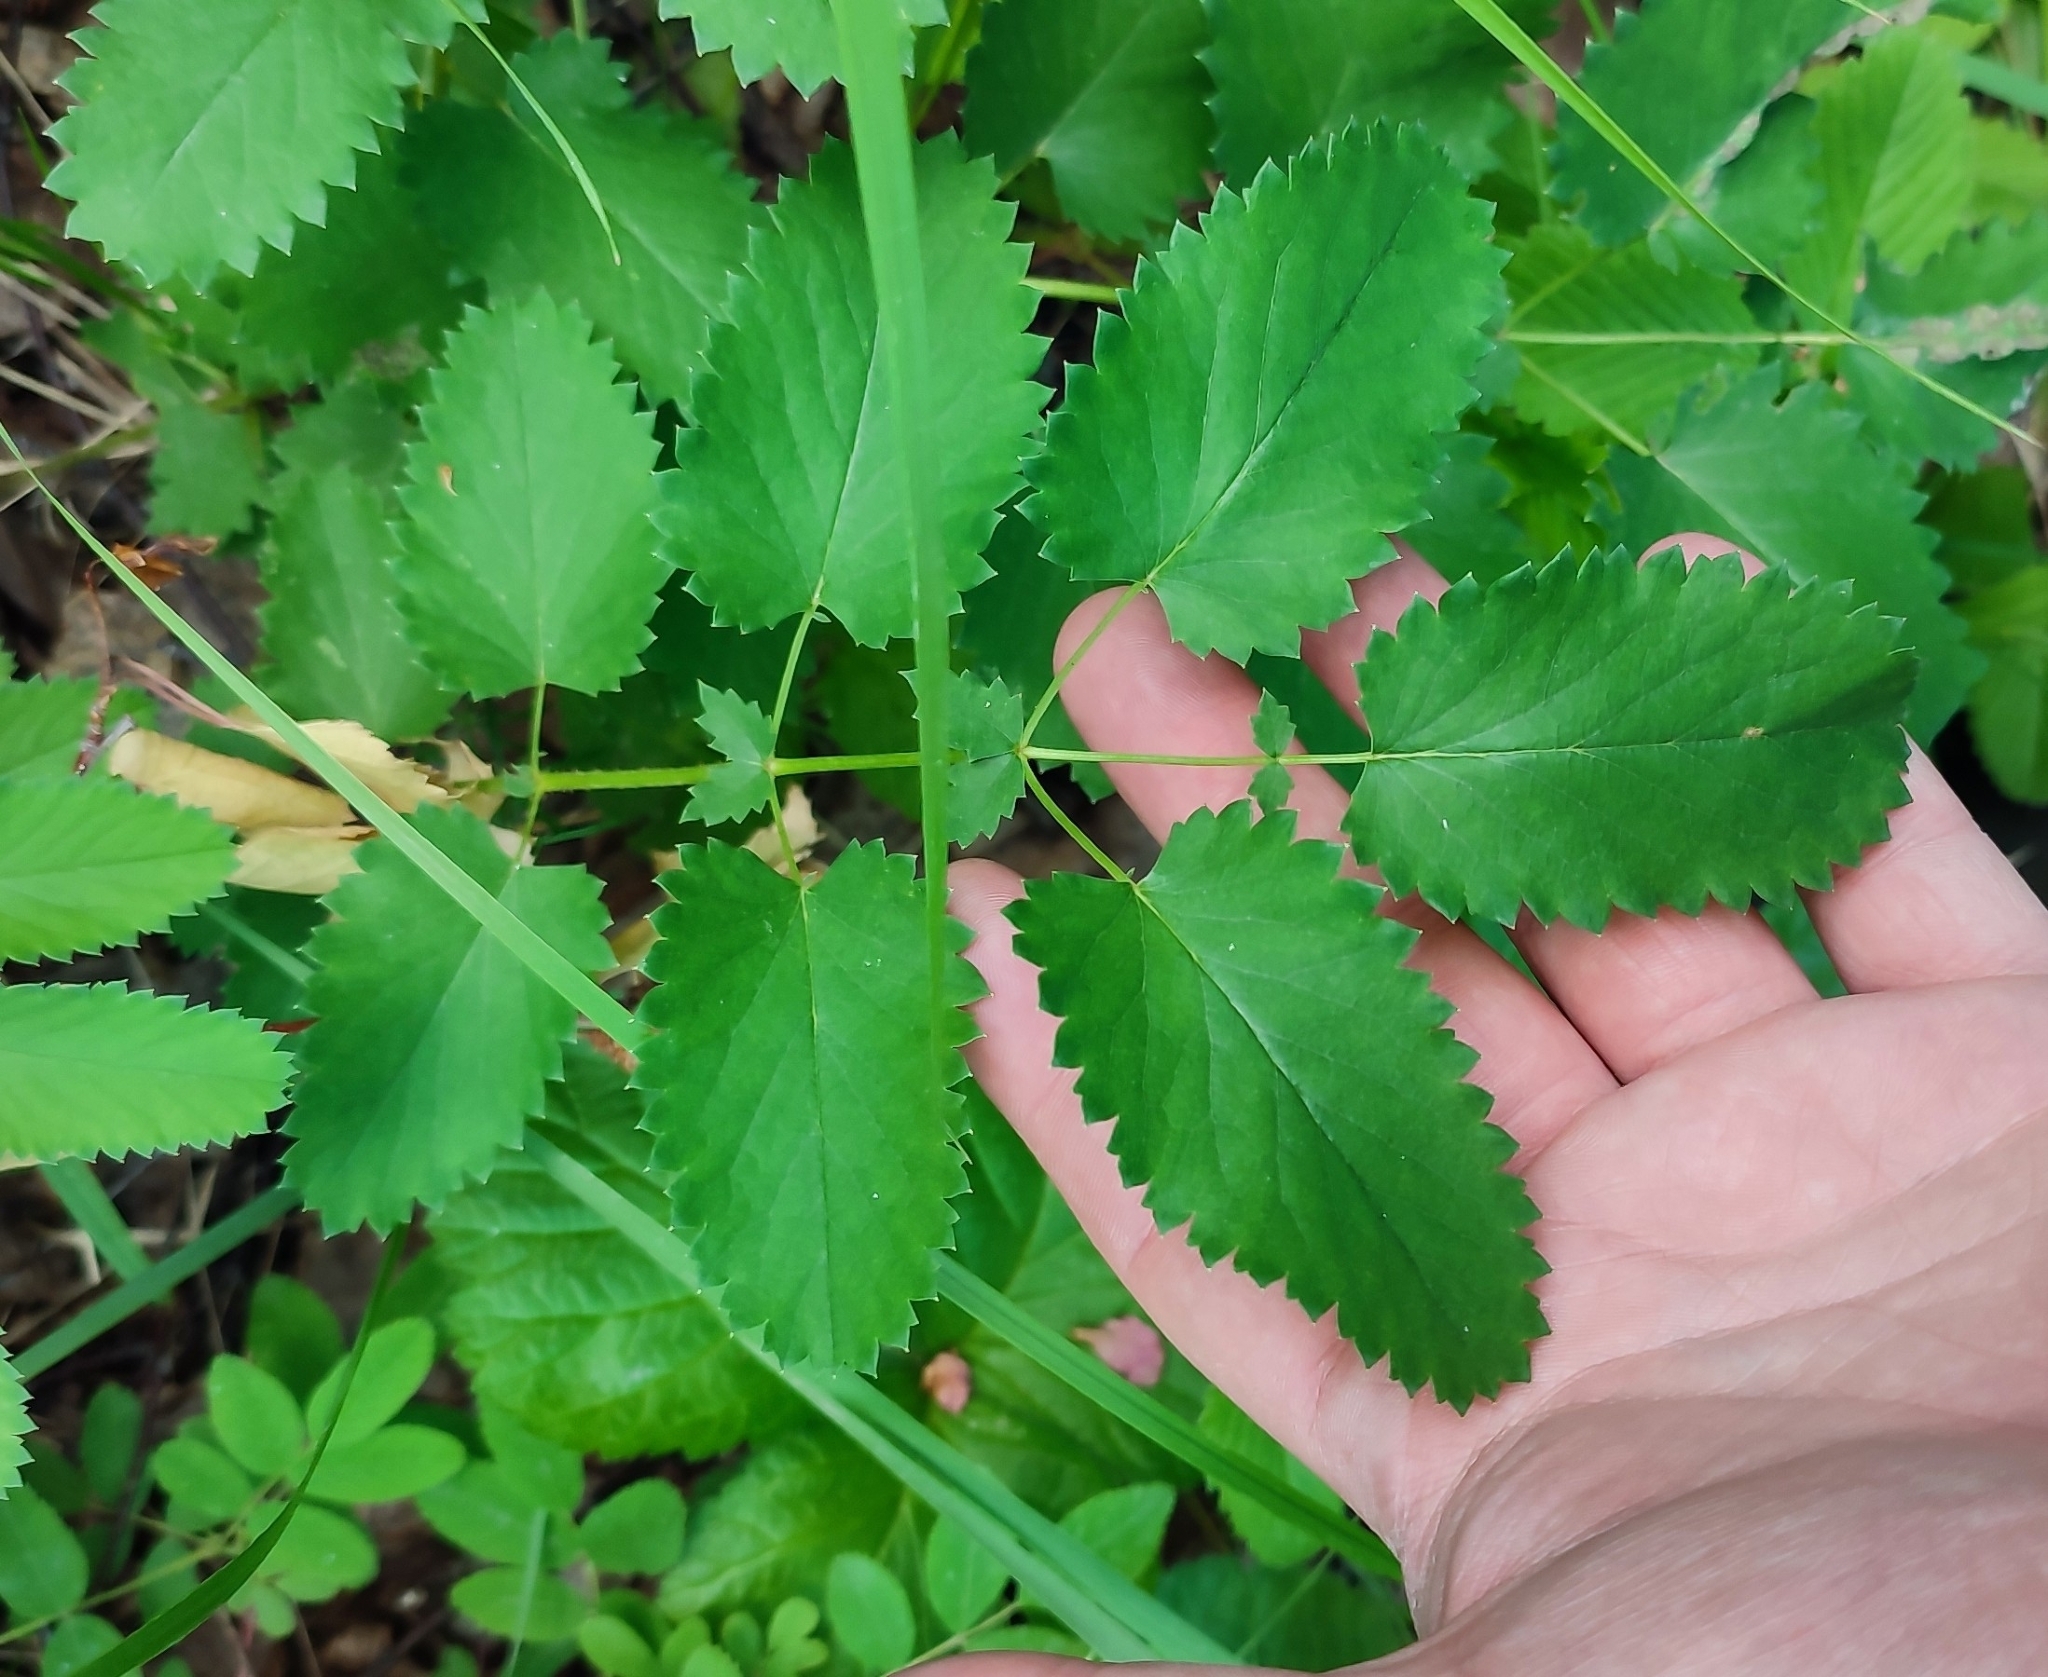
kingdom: Plantae
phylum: Tracheophyta
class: Magnoliopsida
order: Rosales
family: Rosaceae
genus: Sanguisorba
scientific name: Sanguisorba officinalis
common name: Great burnet
